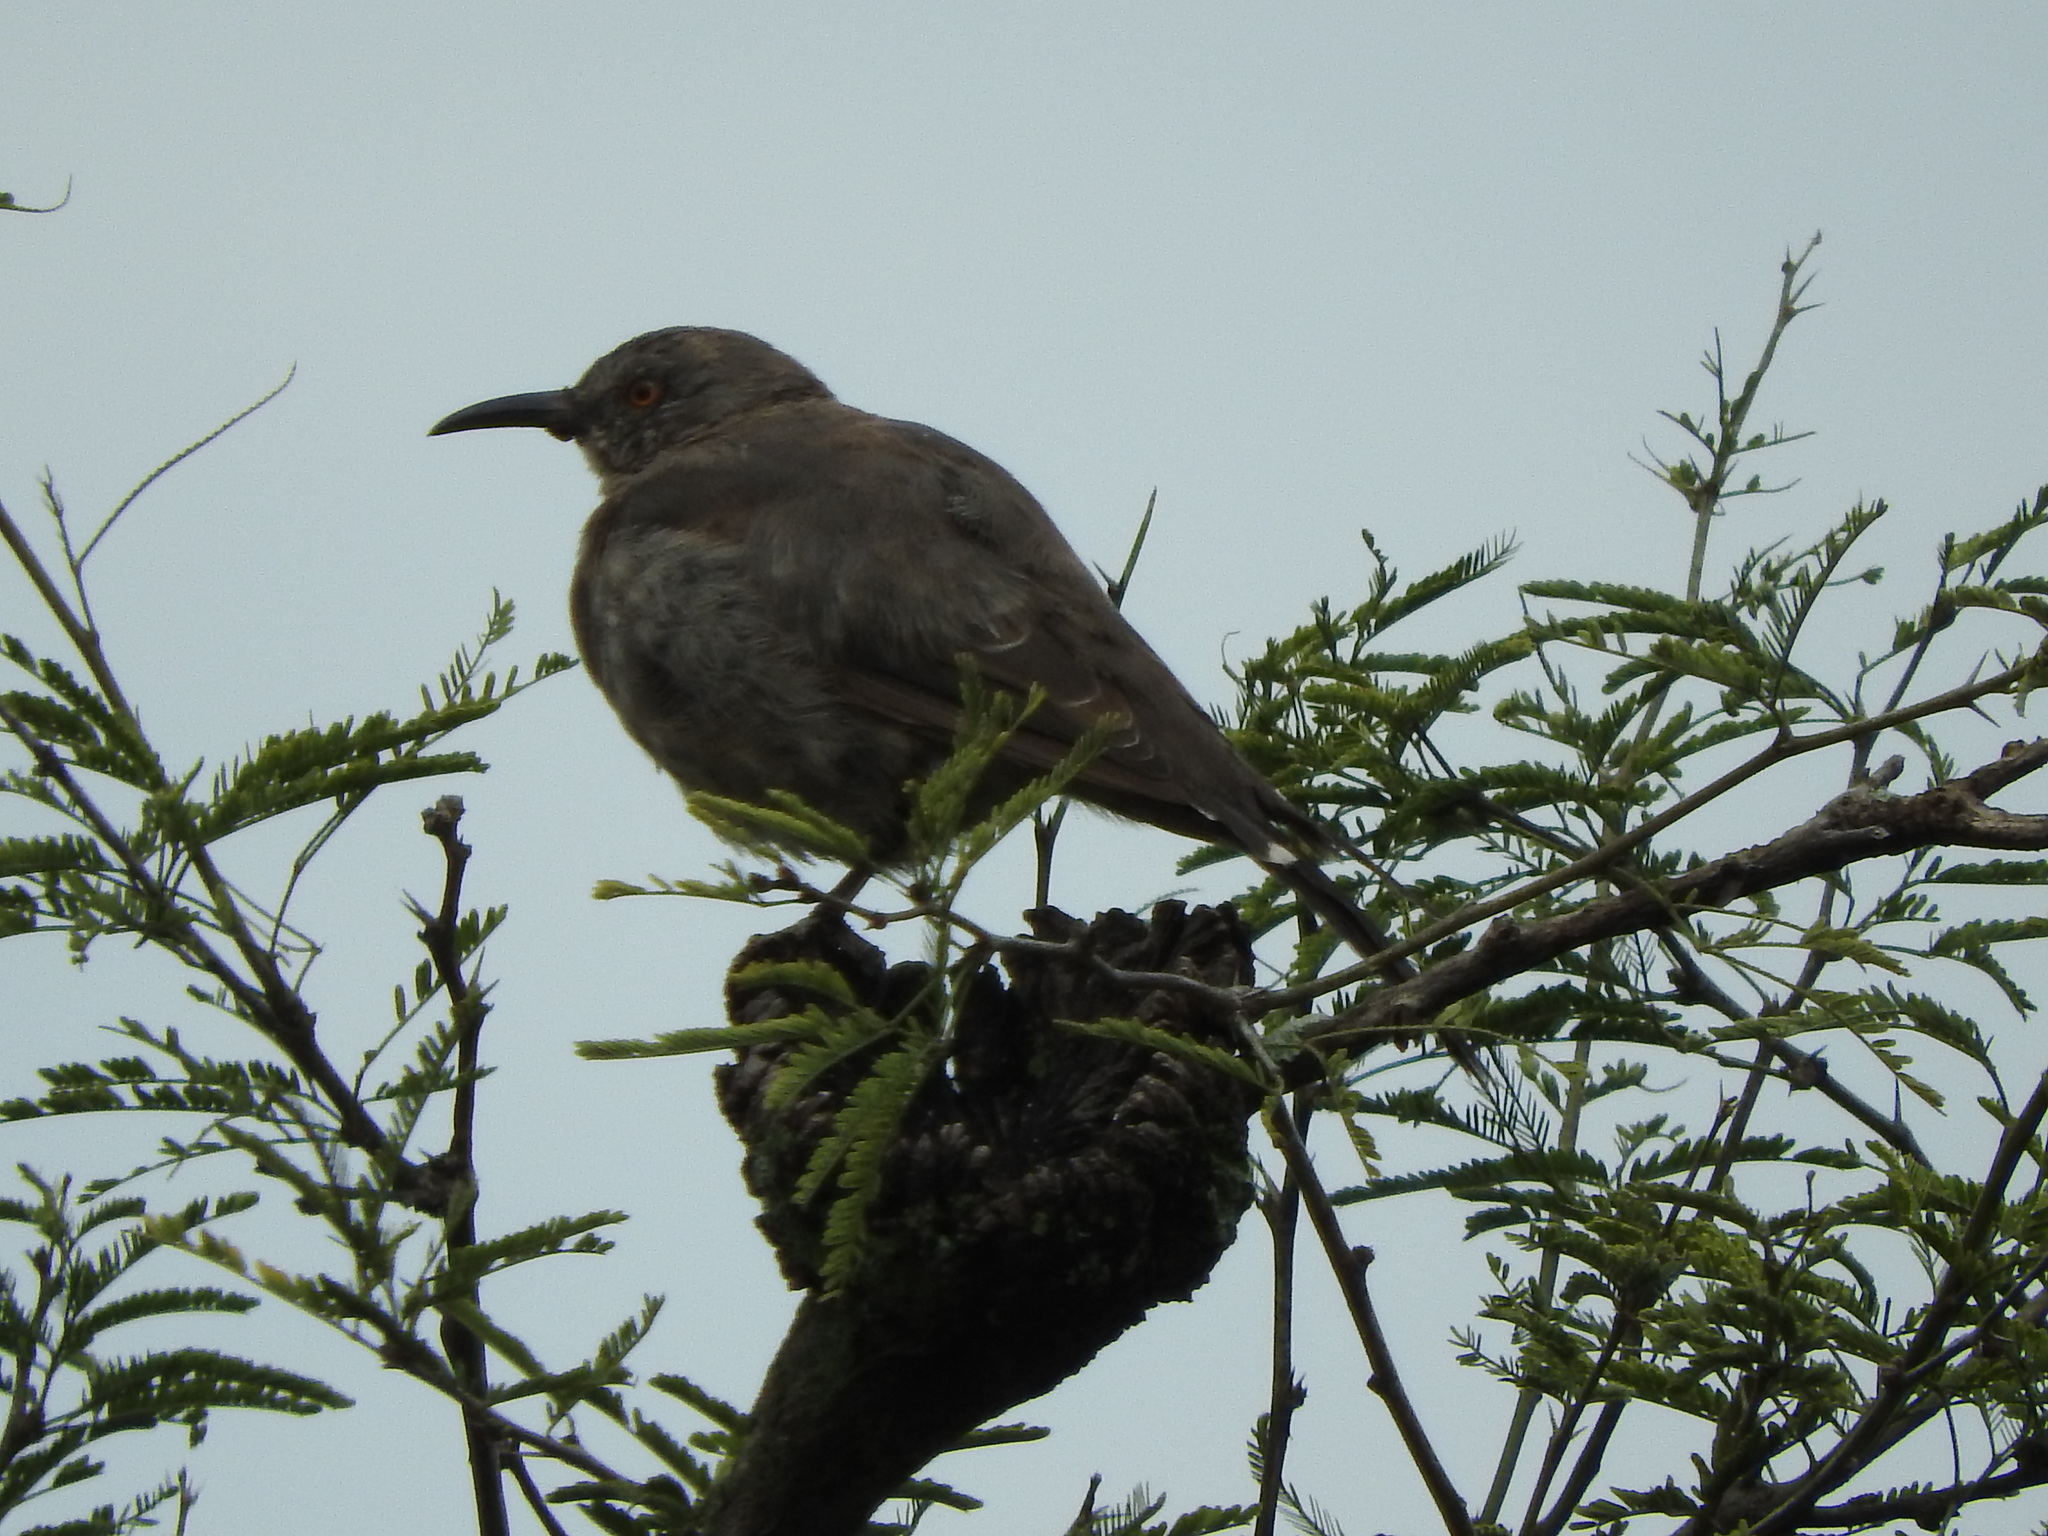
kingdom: Animalia
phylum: Chordata
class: Aves
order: Passeriformes
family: Mimidae
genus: Toxostoma
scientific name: Toxostoma curvirostre
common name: Curve-billed thrasher
